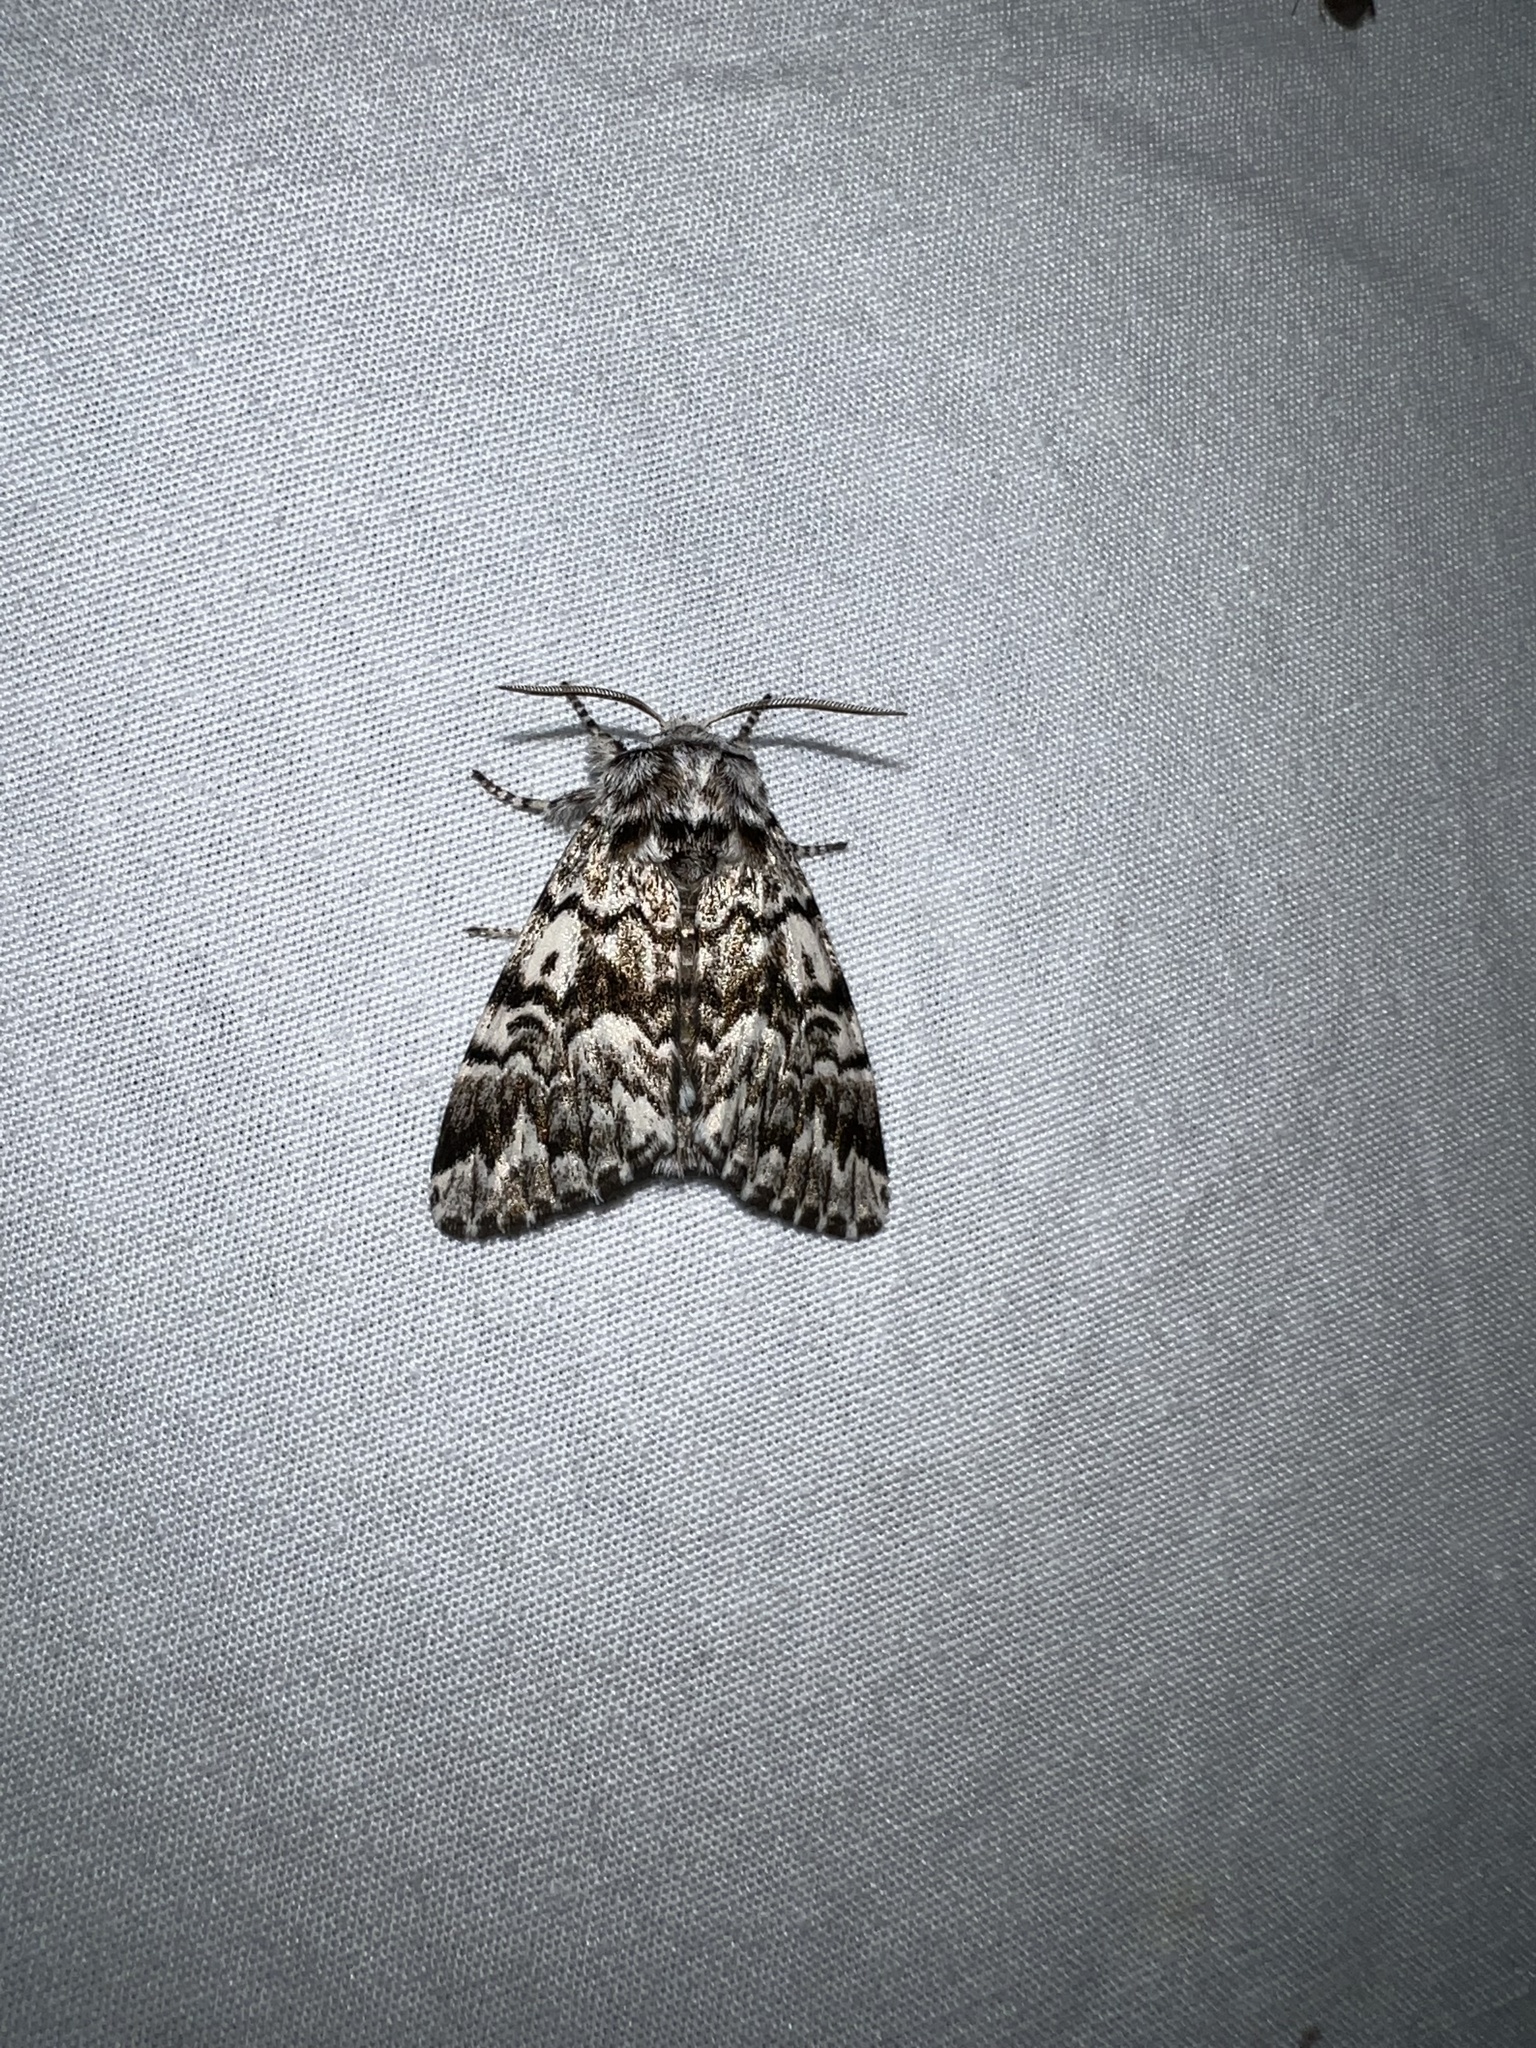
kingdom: Animalia
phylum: Arthropoda
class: Insecta
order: Lepidoptera
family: Noctuidae
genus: Panthea
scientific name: Panthea acronyctoides
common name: Black zigzag moth
